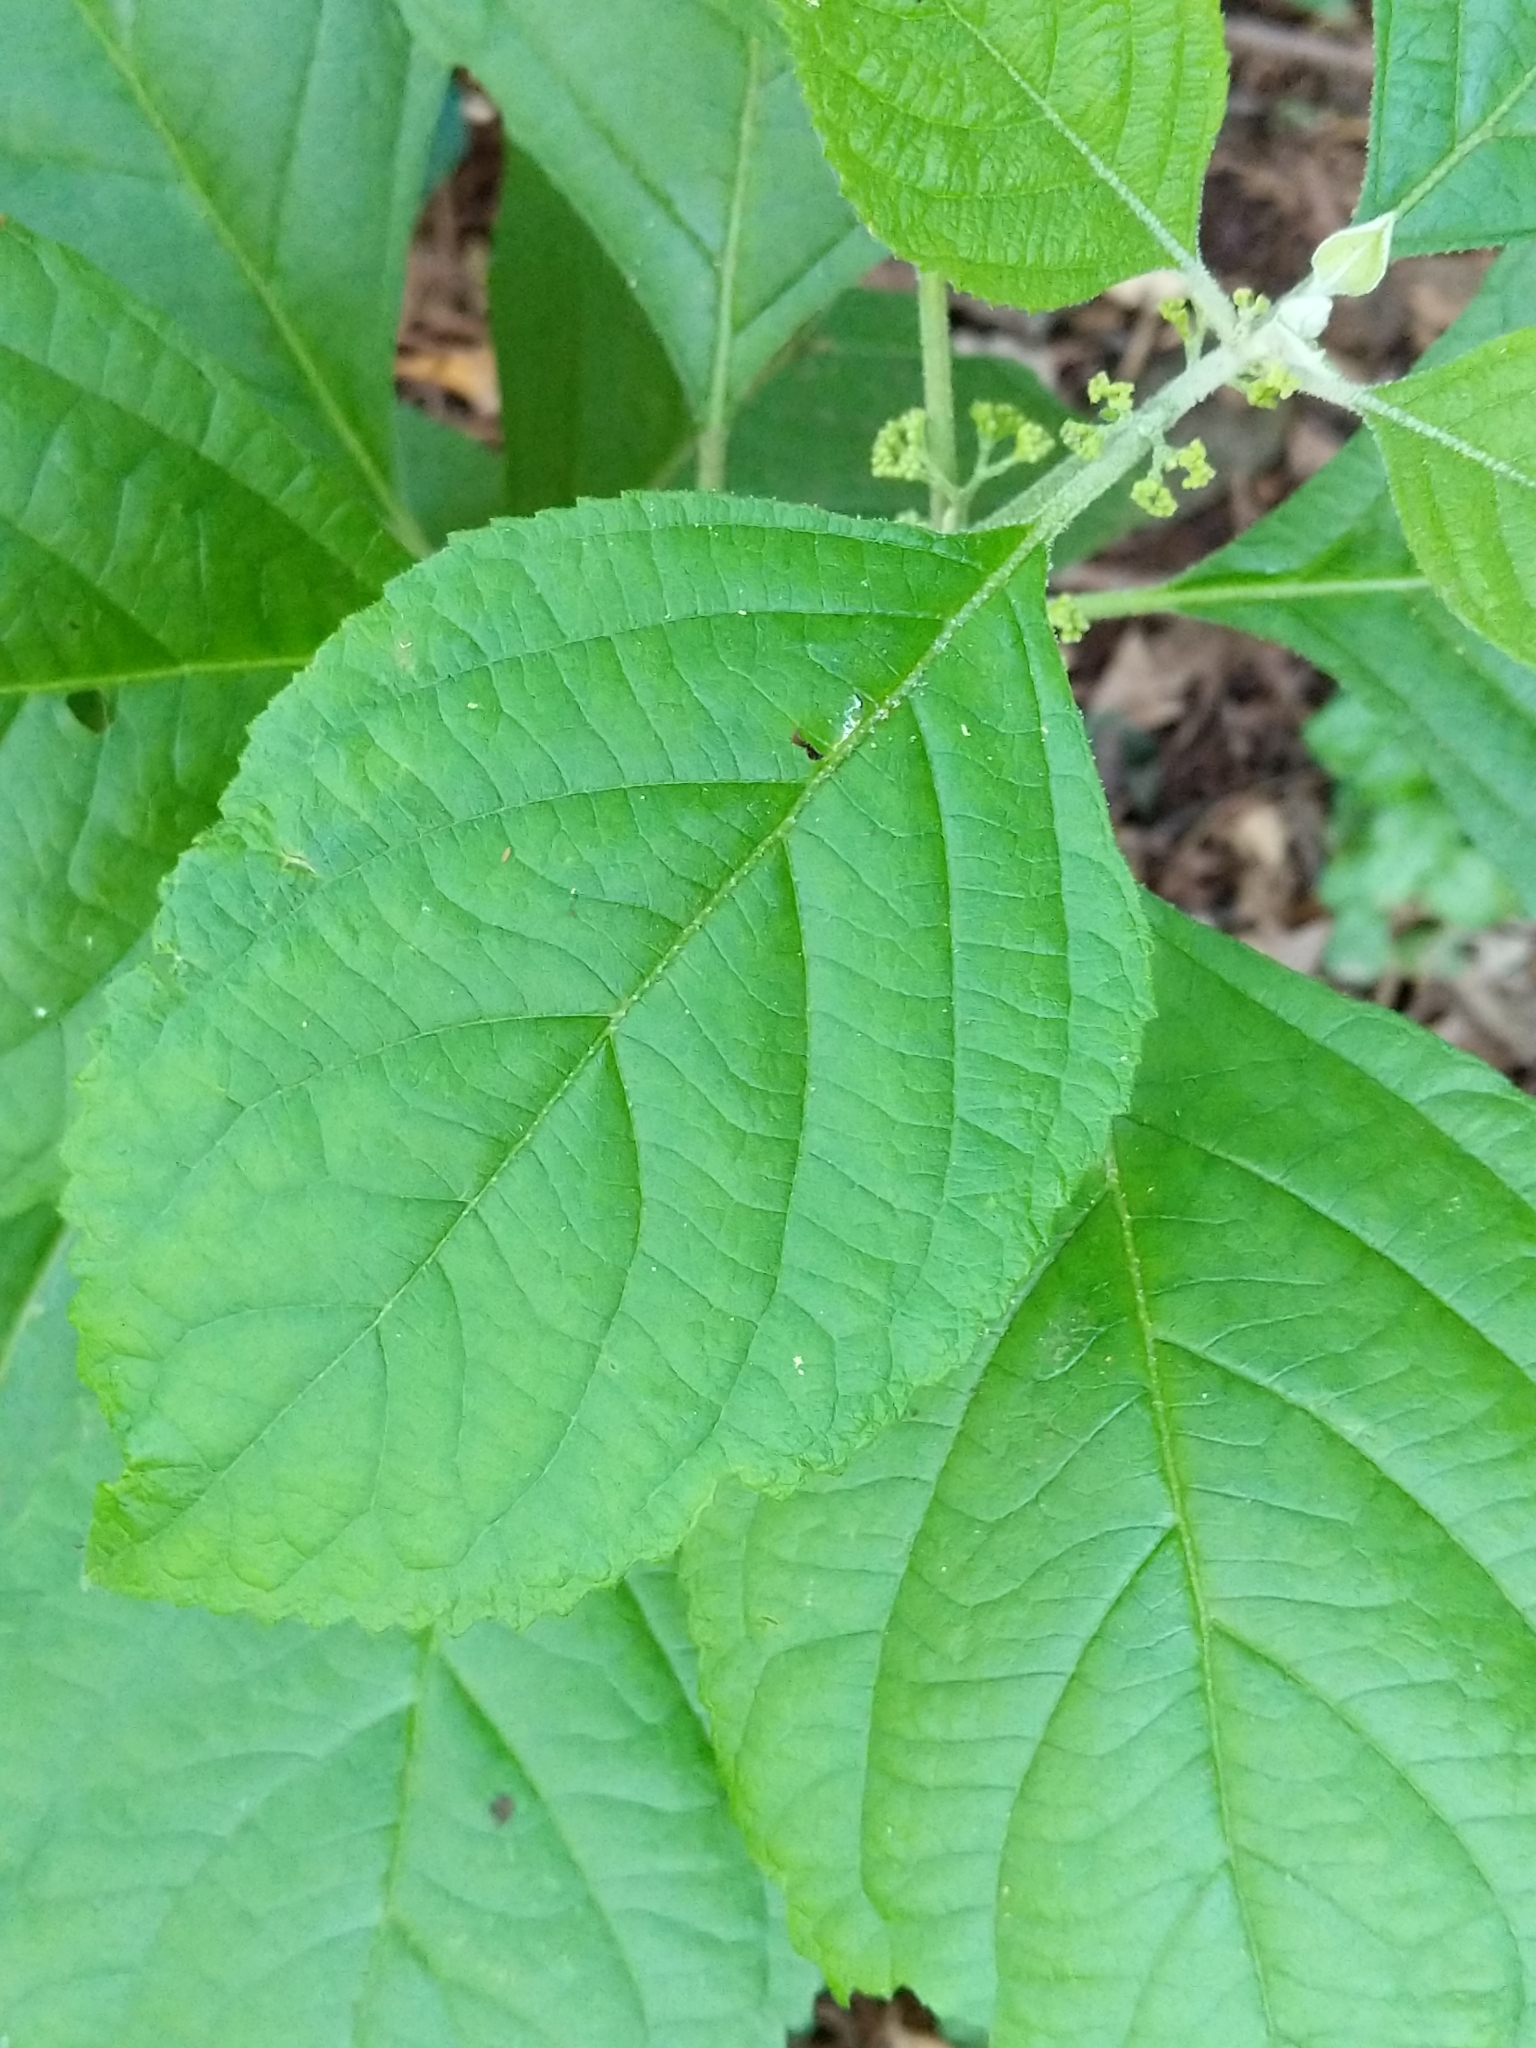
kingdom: Plantae
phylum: Tracheophyta
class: Magnoliopsida
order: Lamiales
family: Lamiaceae
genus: Callicarpa
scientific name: Callicarpa americana
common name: American beautyberry
